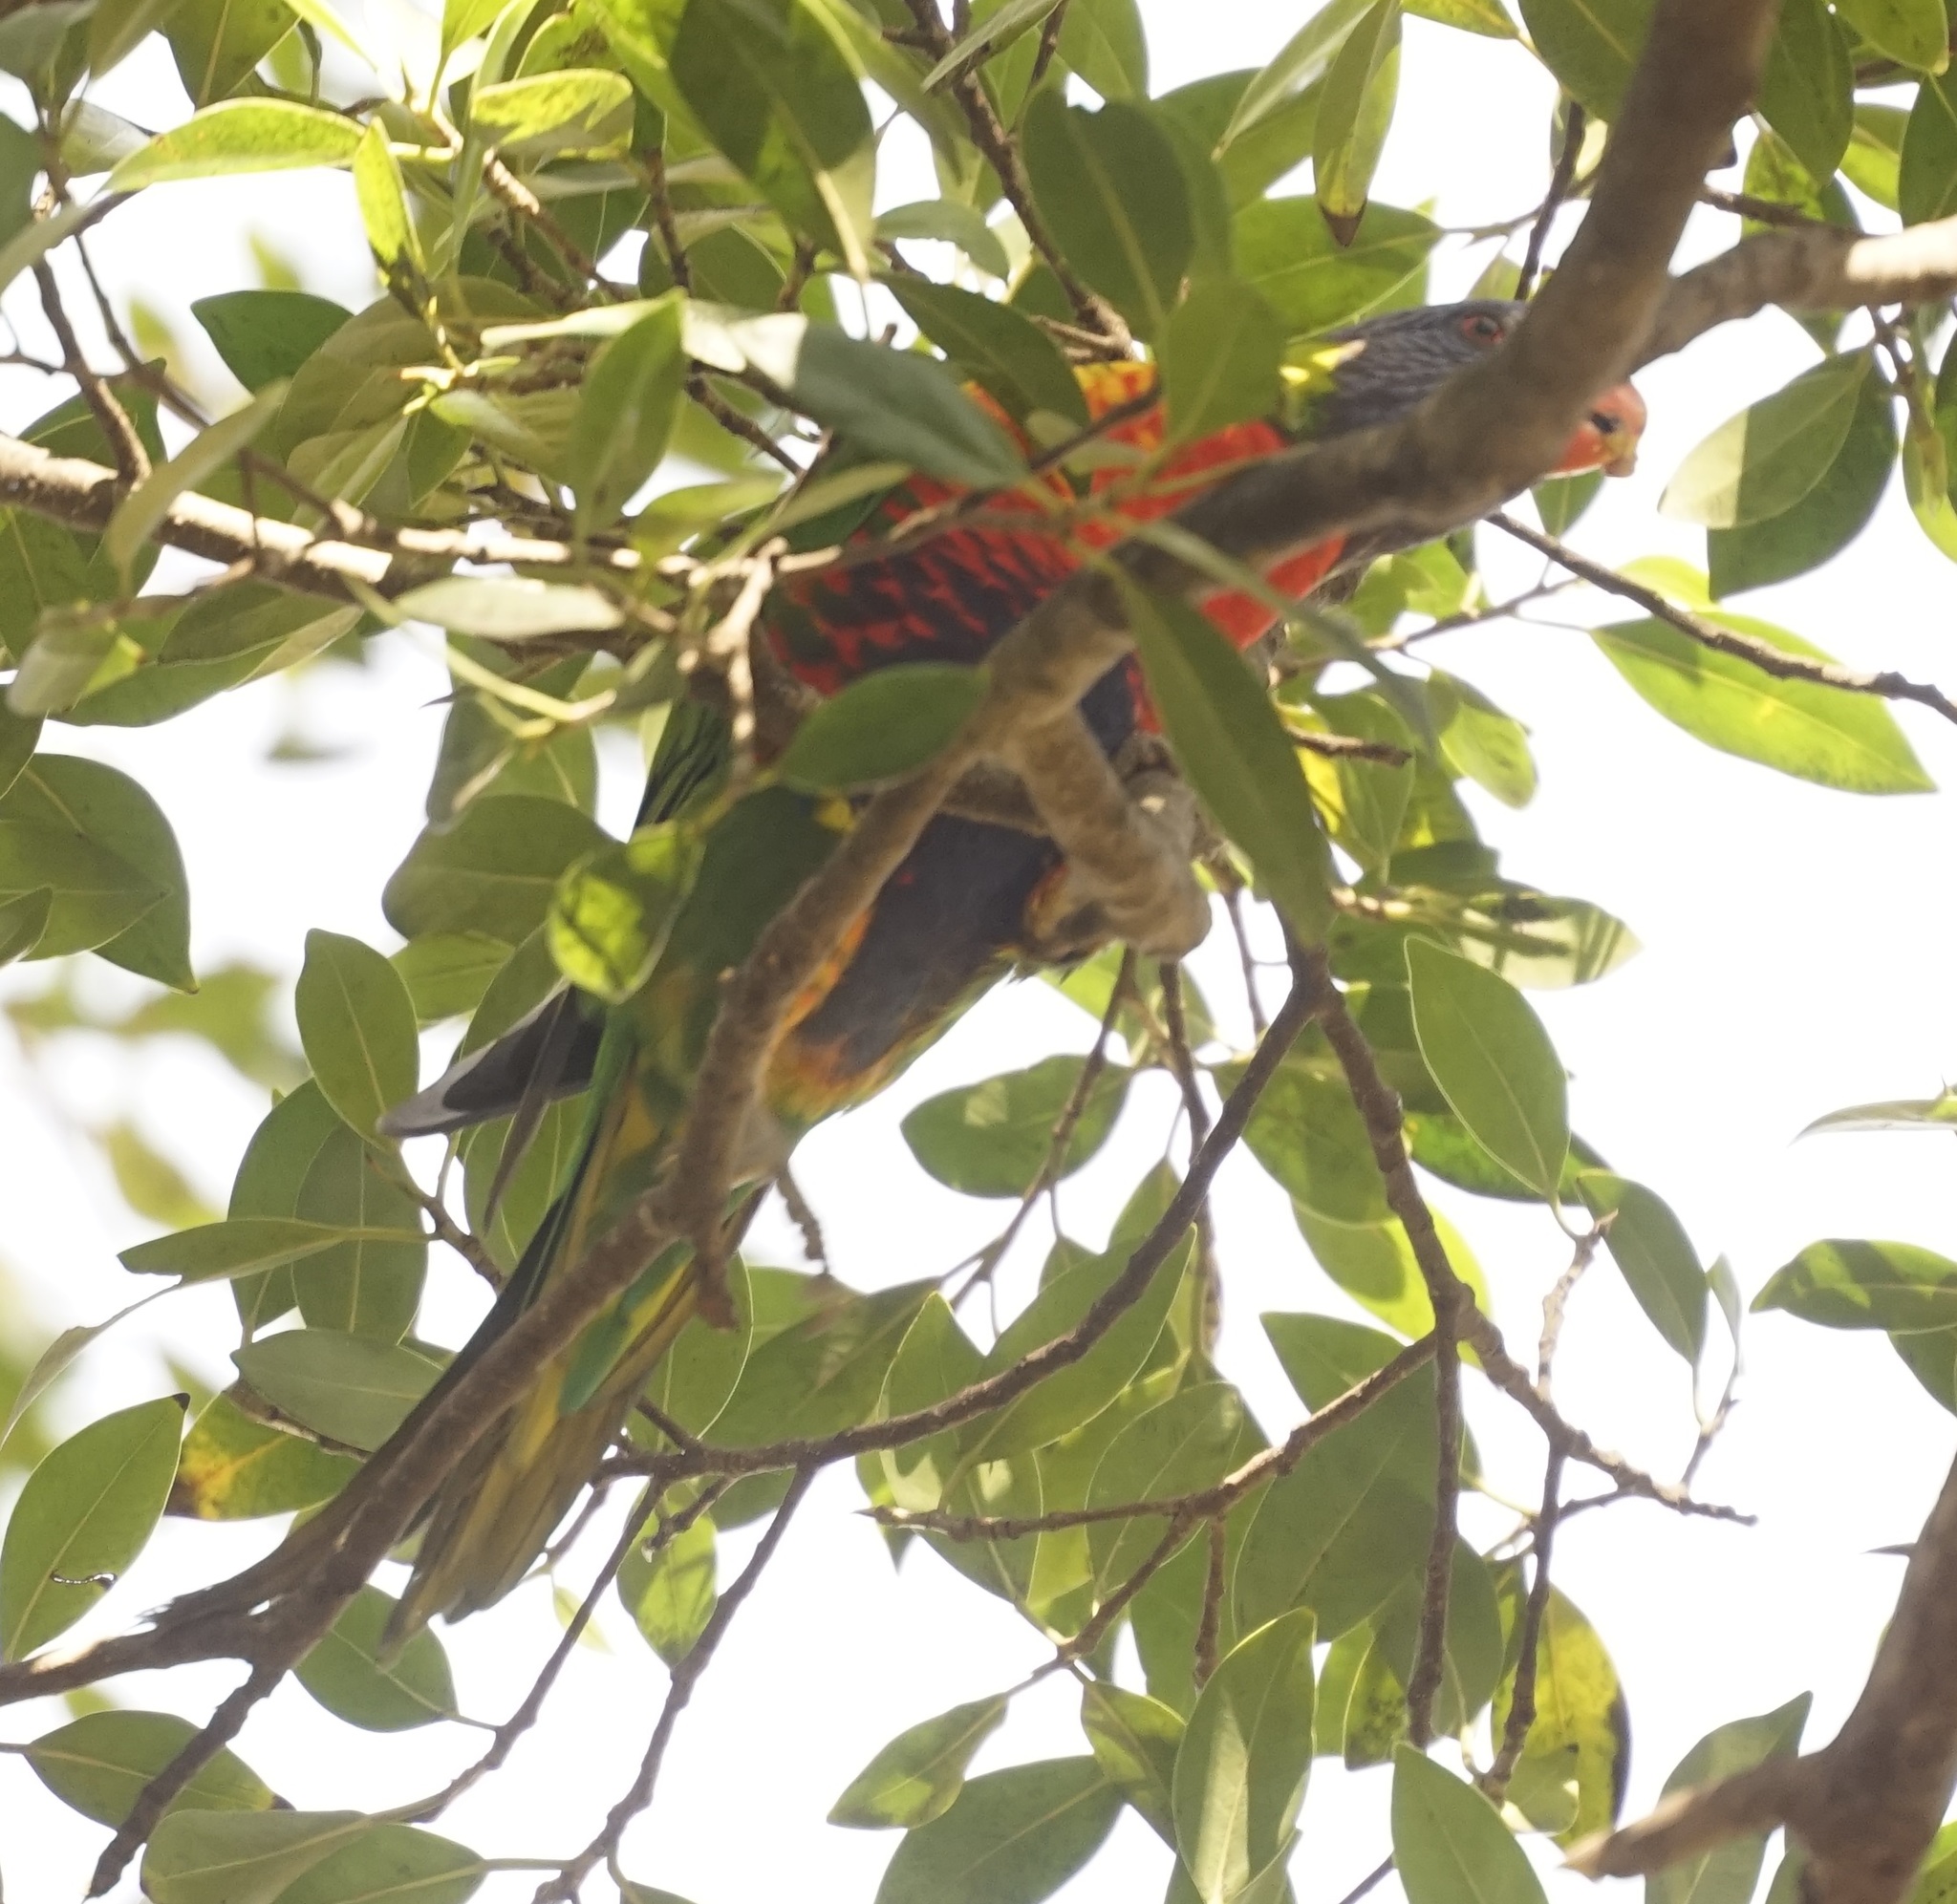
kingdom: Animalia
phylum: Chordata
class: Aves
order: Psittaciformes
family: Psittacidae
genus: Trichoglossus
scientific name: Trichoglossus haematodus
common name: Coconut lorikeet
